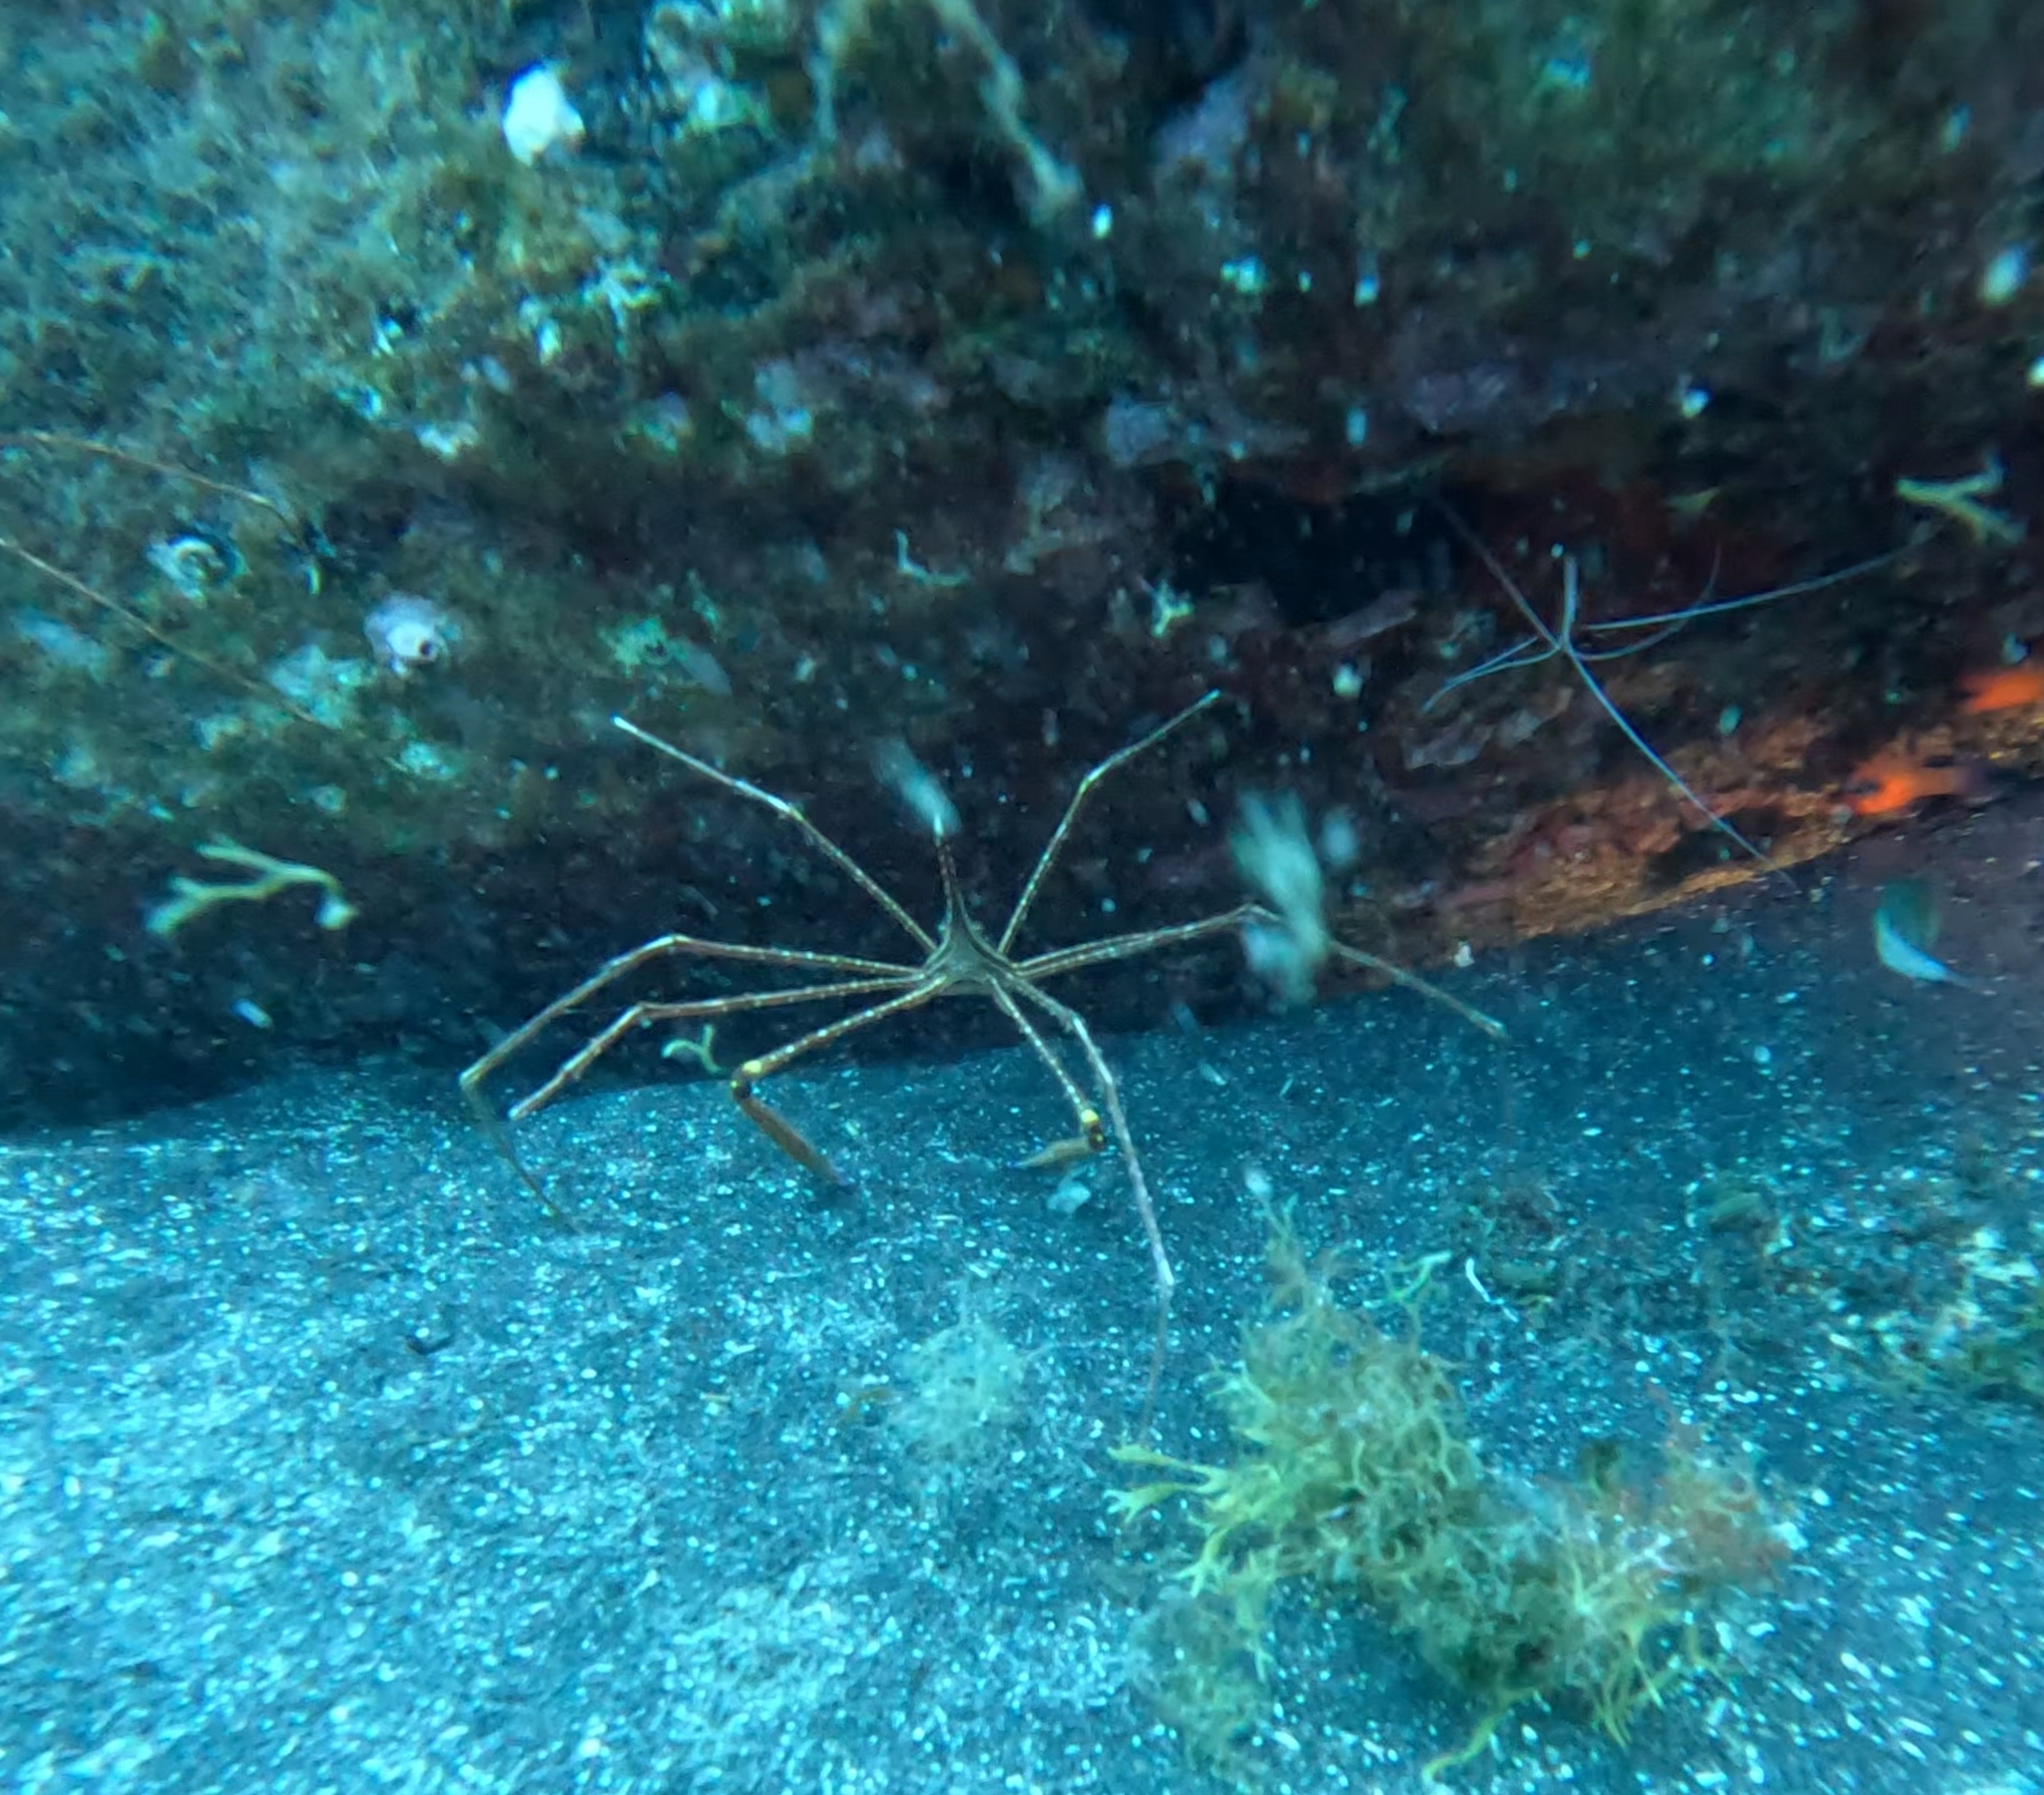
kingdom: Animalia
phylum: Arthropoda
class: Malacostraca
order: Decapoda
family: Inachoididae
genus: Stenorhynchus
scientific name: Stenorhynchus lanceolatus
